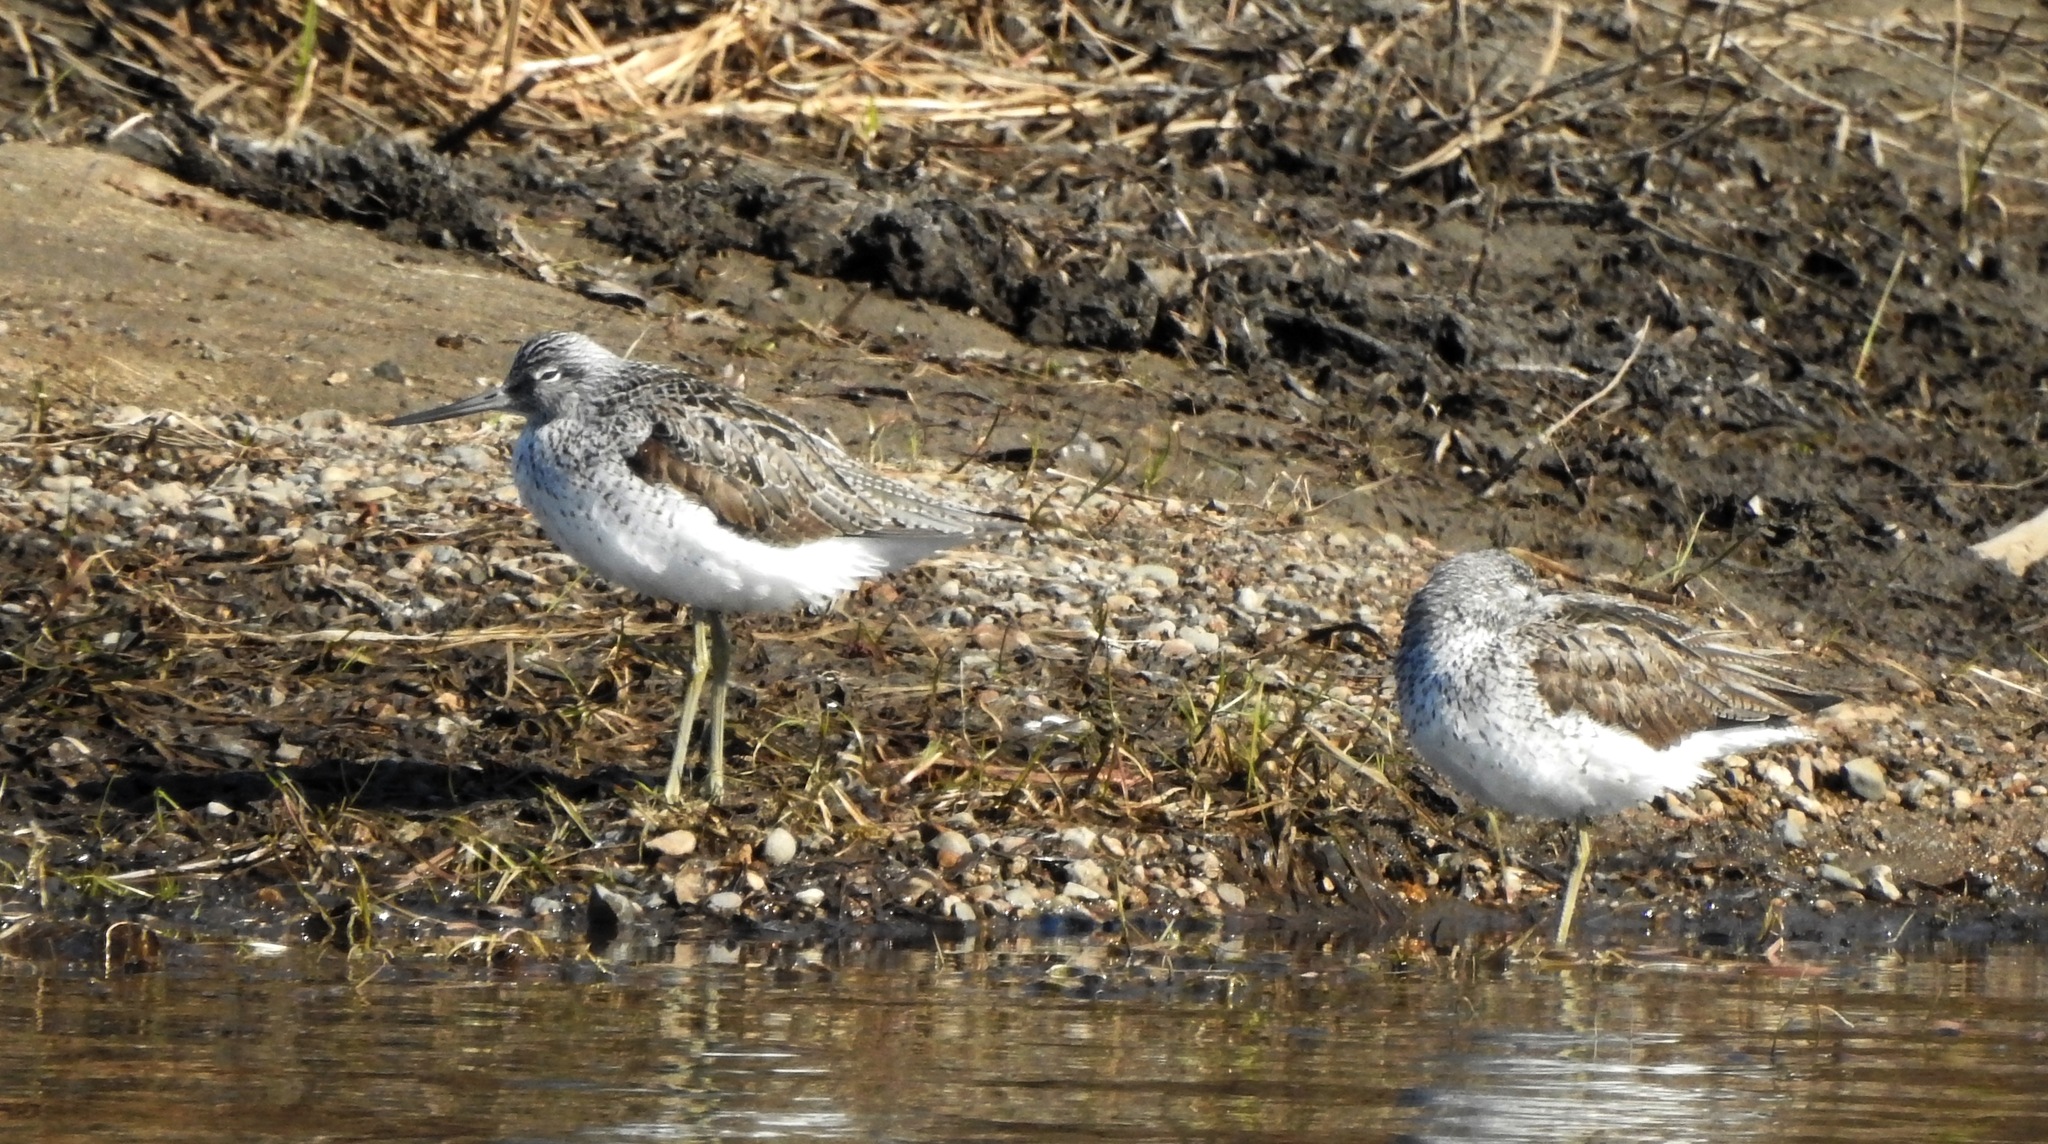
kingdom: Animalia
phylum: Chordata
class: Aves
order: Charadriiformes
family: Scolopacidae
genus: Tringa
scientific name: Tringa nebularia
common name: Common greenshank
